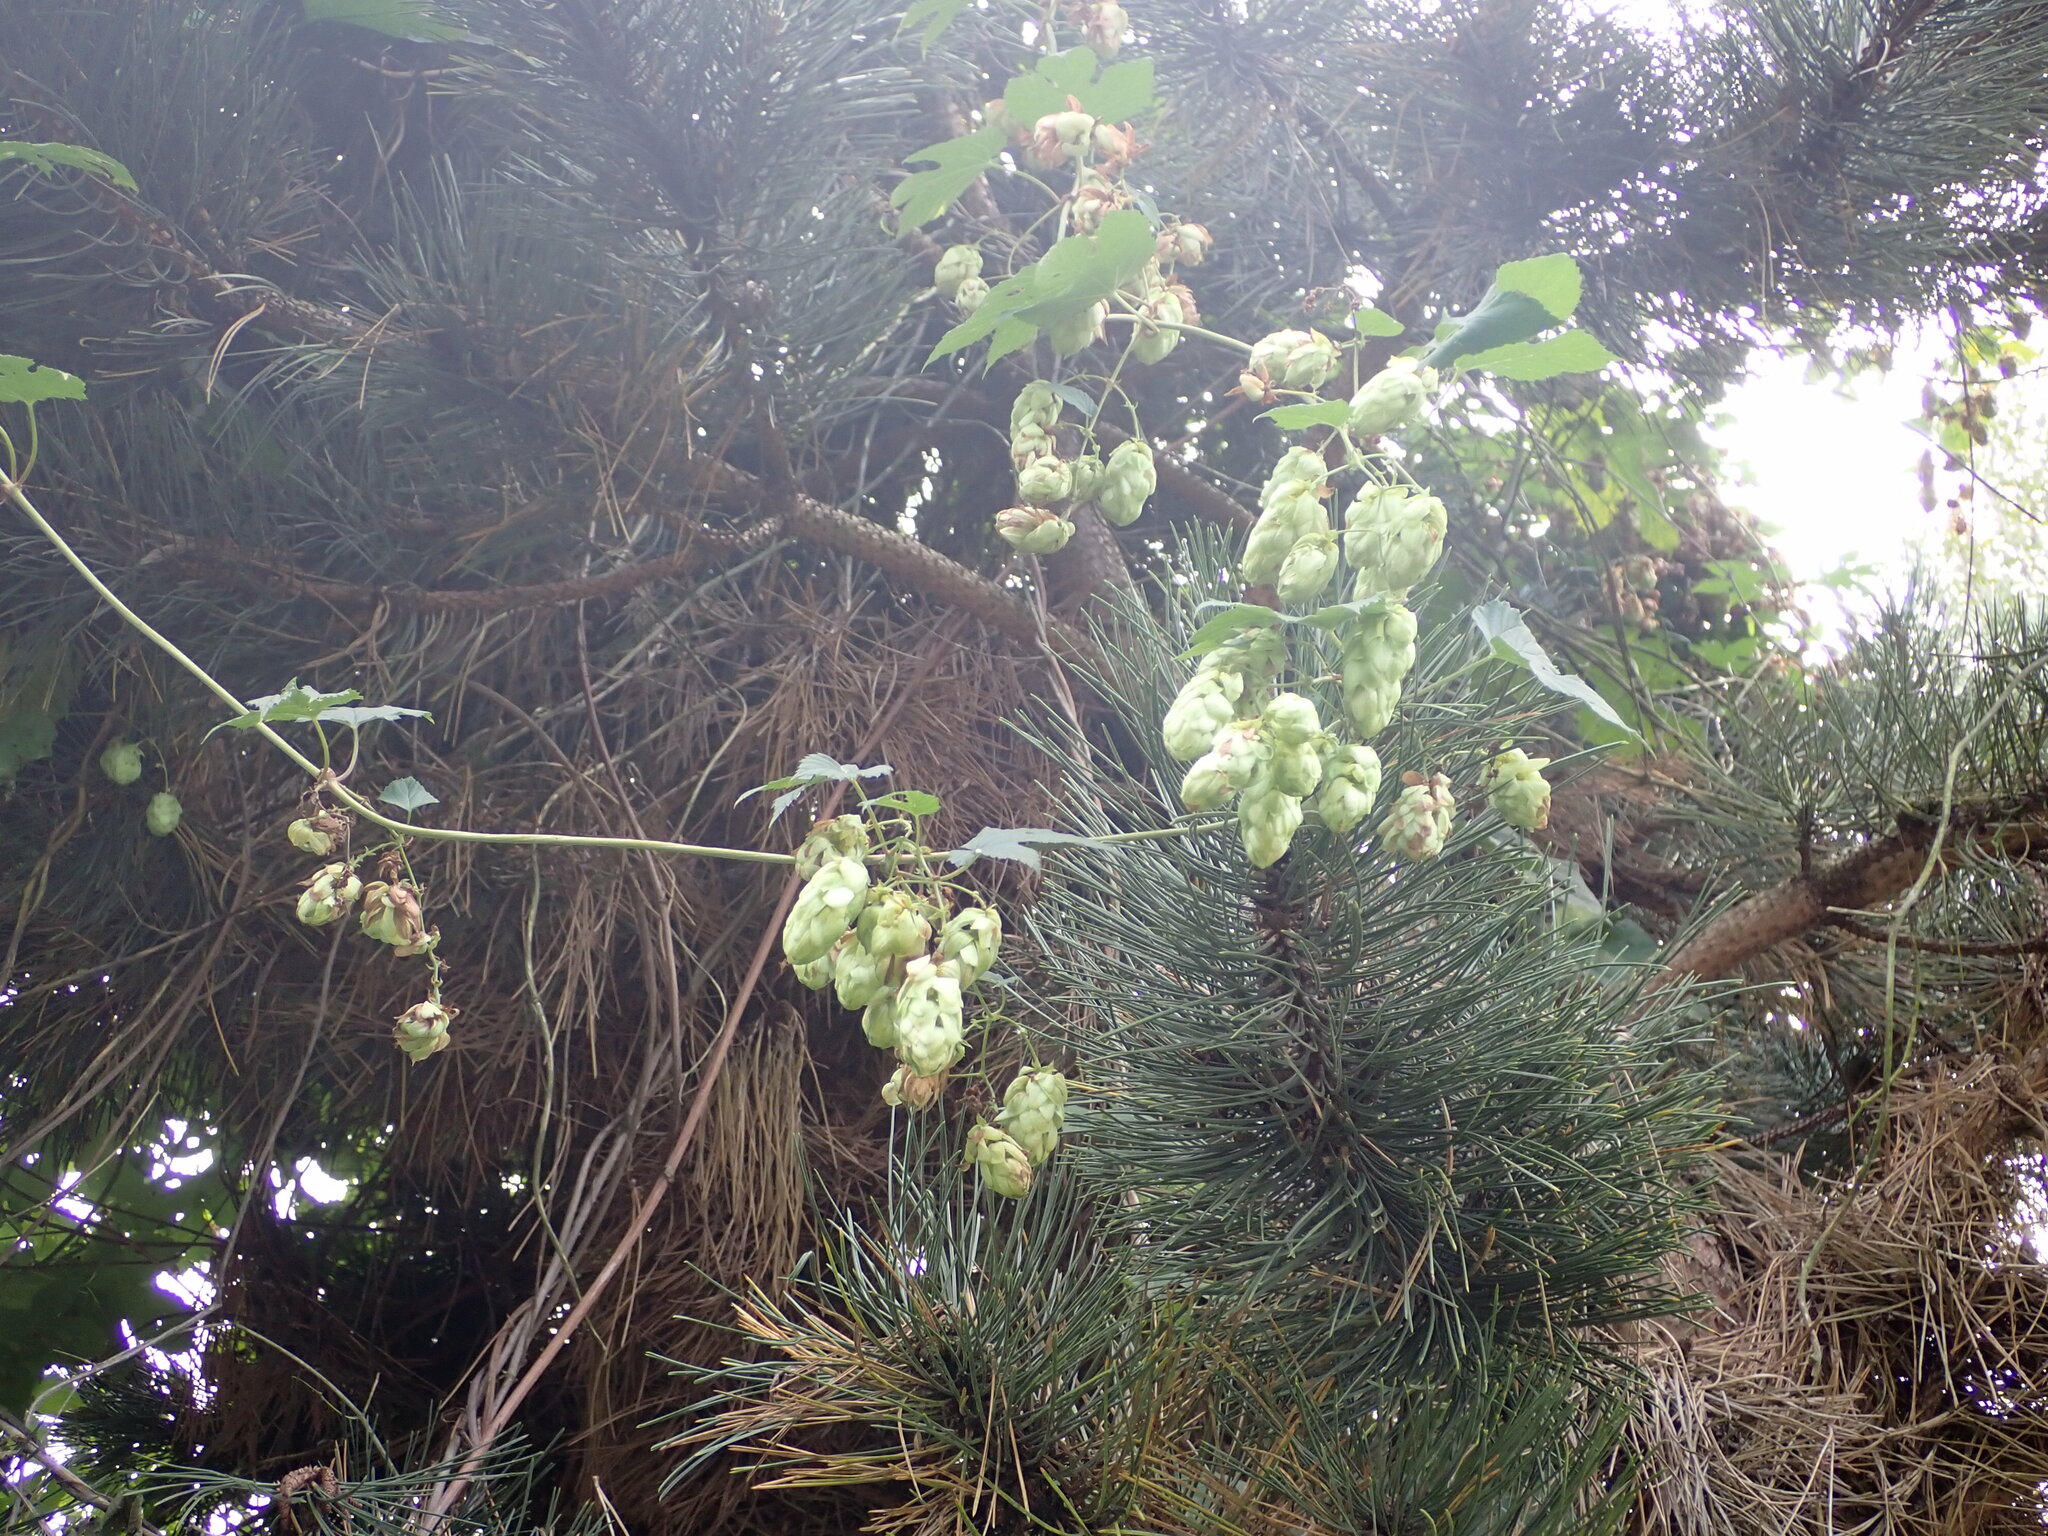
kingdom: Plantae
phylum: Tracheophyta
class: Magnoliopsida
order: Rosales
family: Cannabaceae
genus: Humulus
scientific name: Humulus lupulus
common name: Hop
